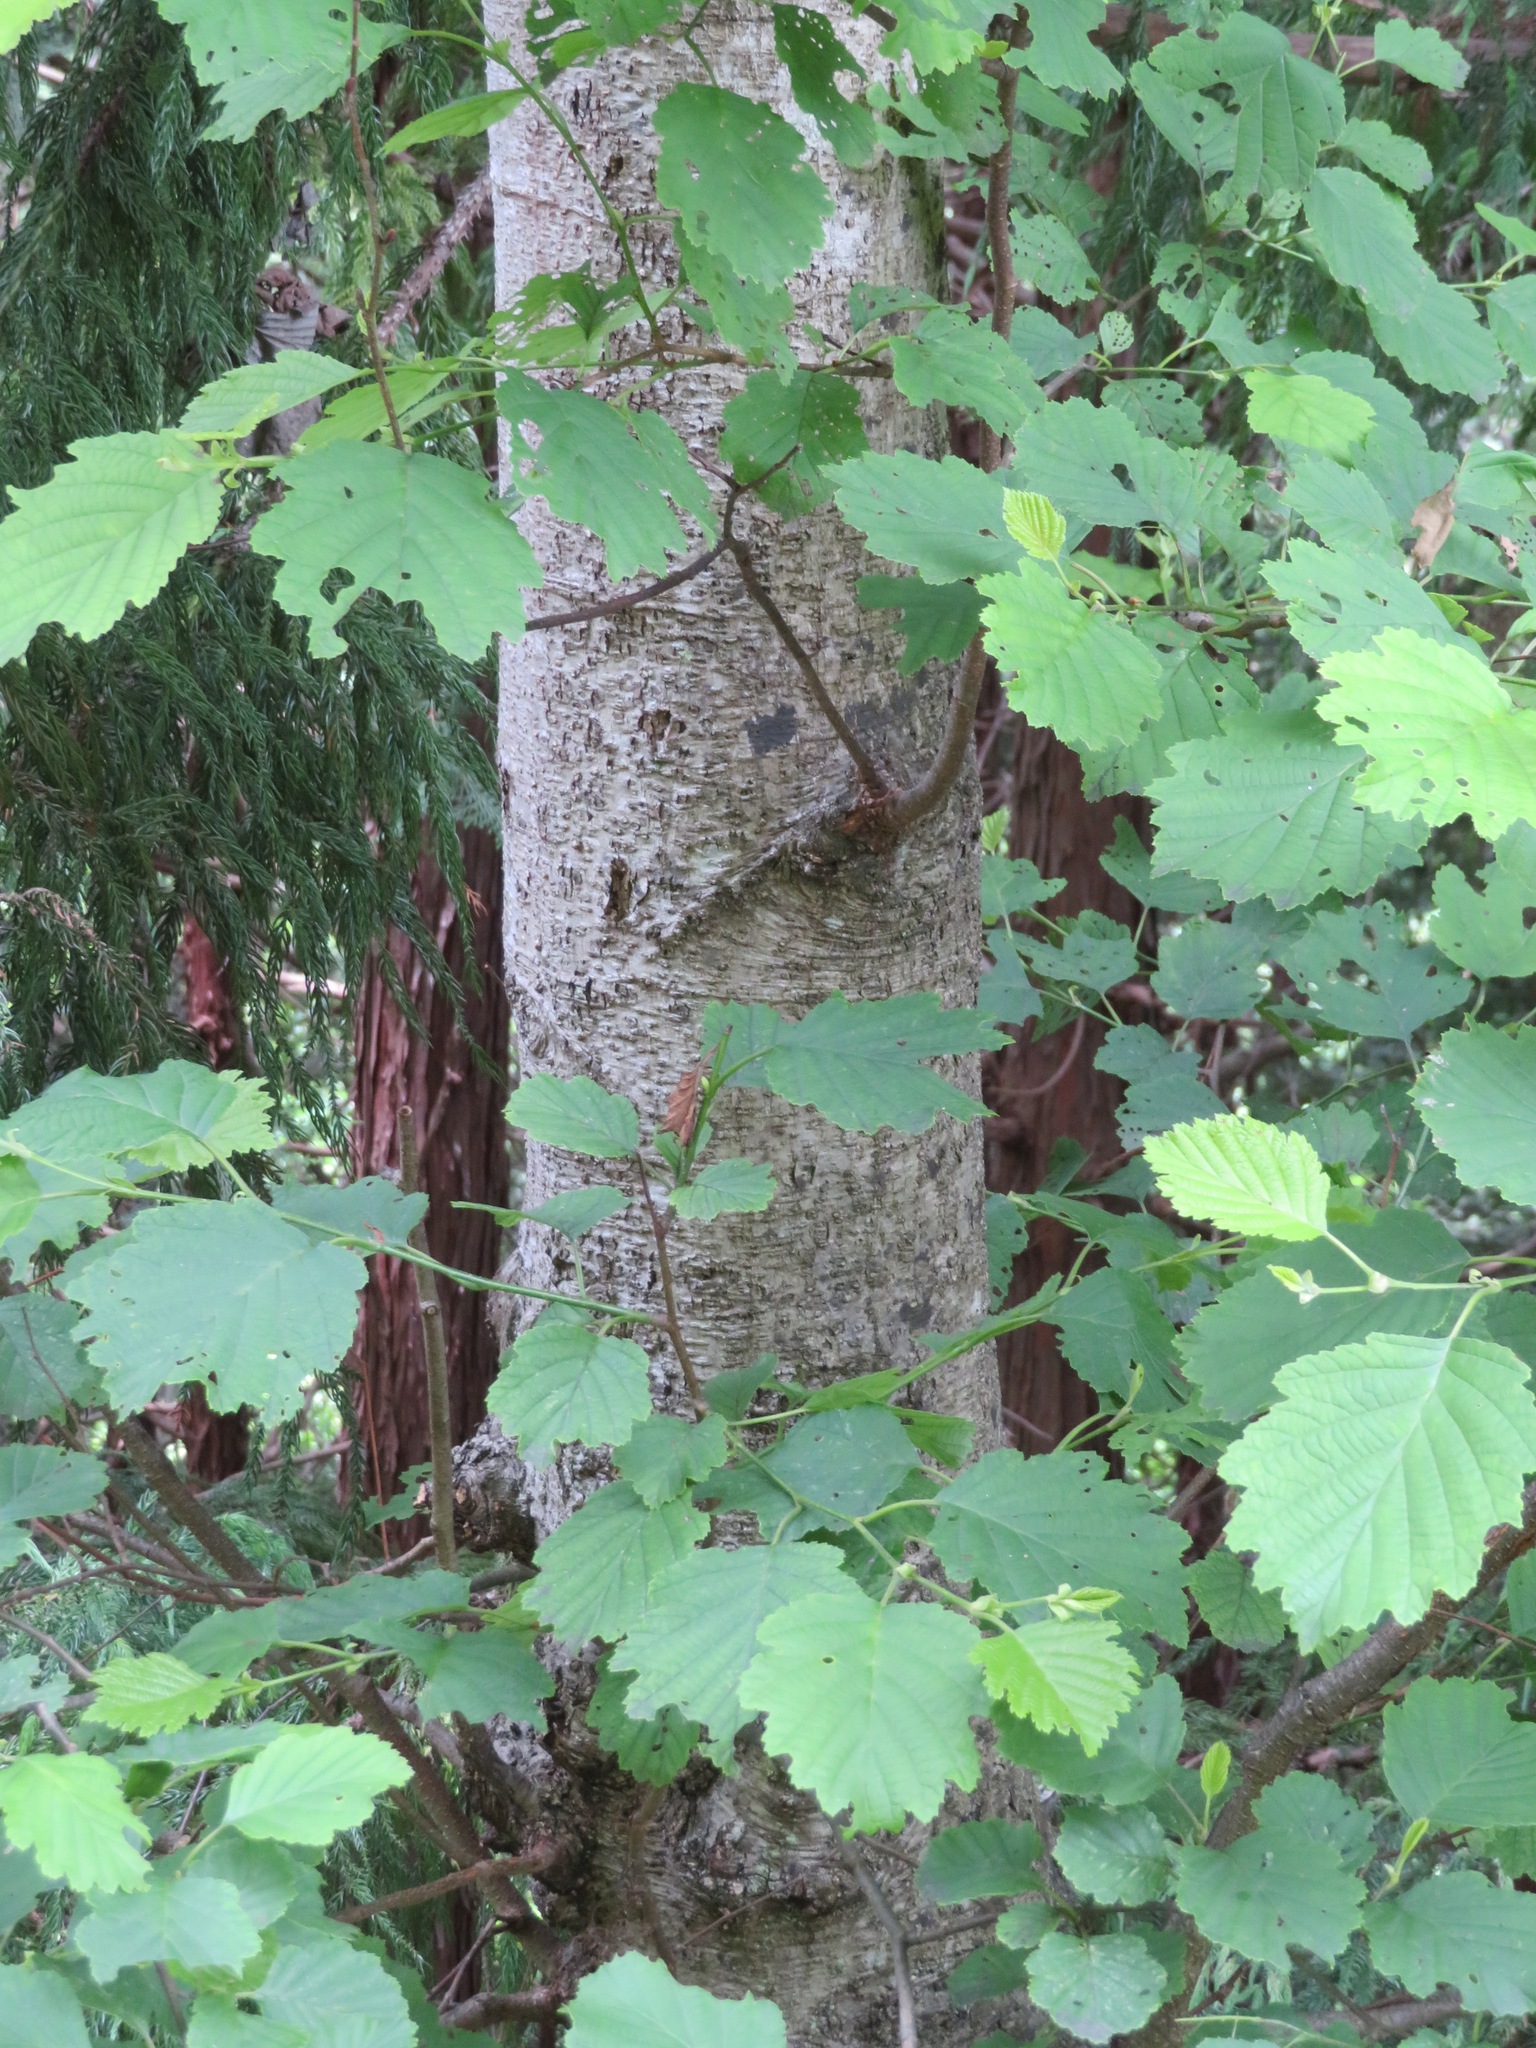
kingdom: Plantae
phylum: Tracheophyta
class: Magnoliopsida
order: Fagales
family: Betulaceae
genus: Alnus
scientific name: Alnus hirsuta
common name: Manchurian alder
